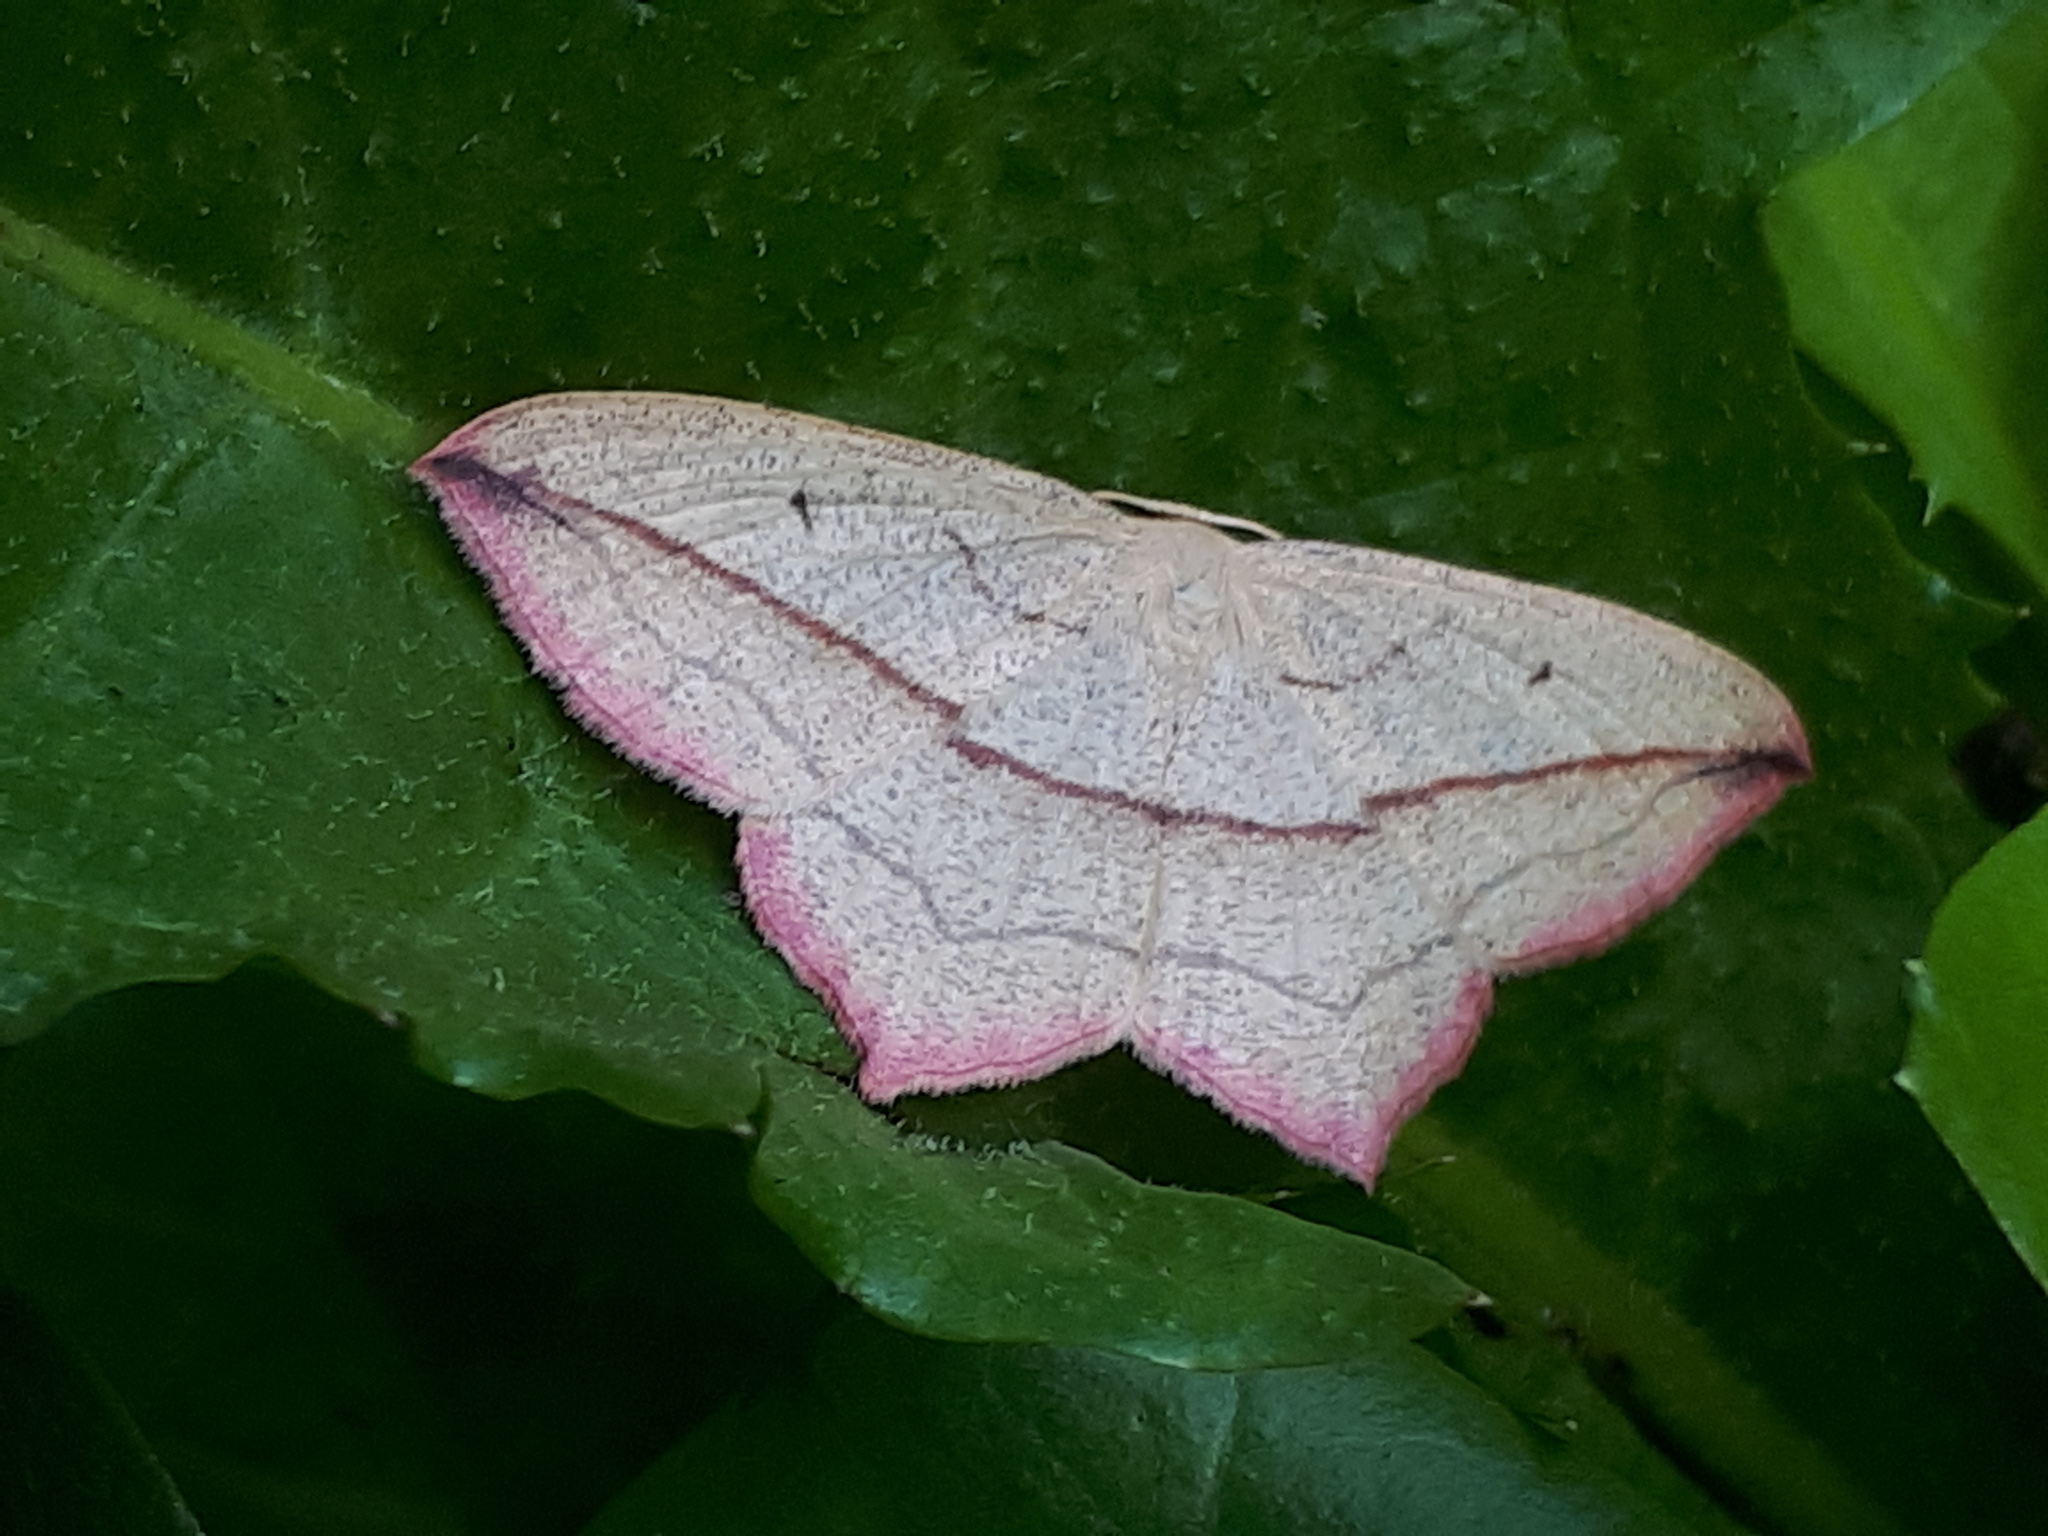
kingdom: Animalia
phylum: Arthropoda
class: Insecta
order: Lepidoptera
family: Geometridae
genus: Timandra
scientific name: Timandra comae
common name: Blood-vein
